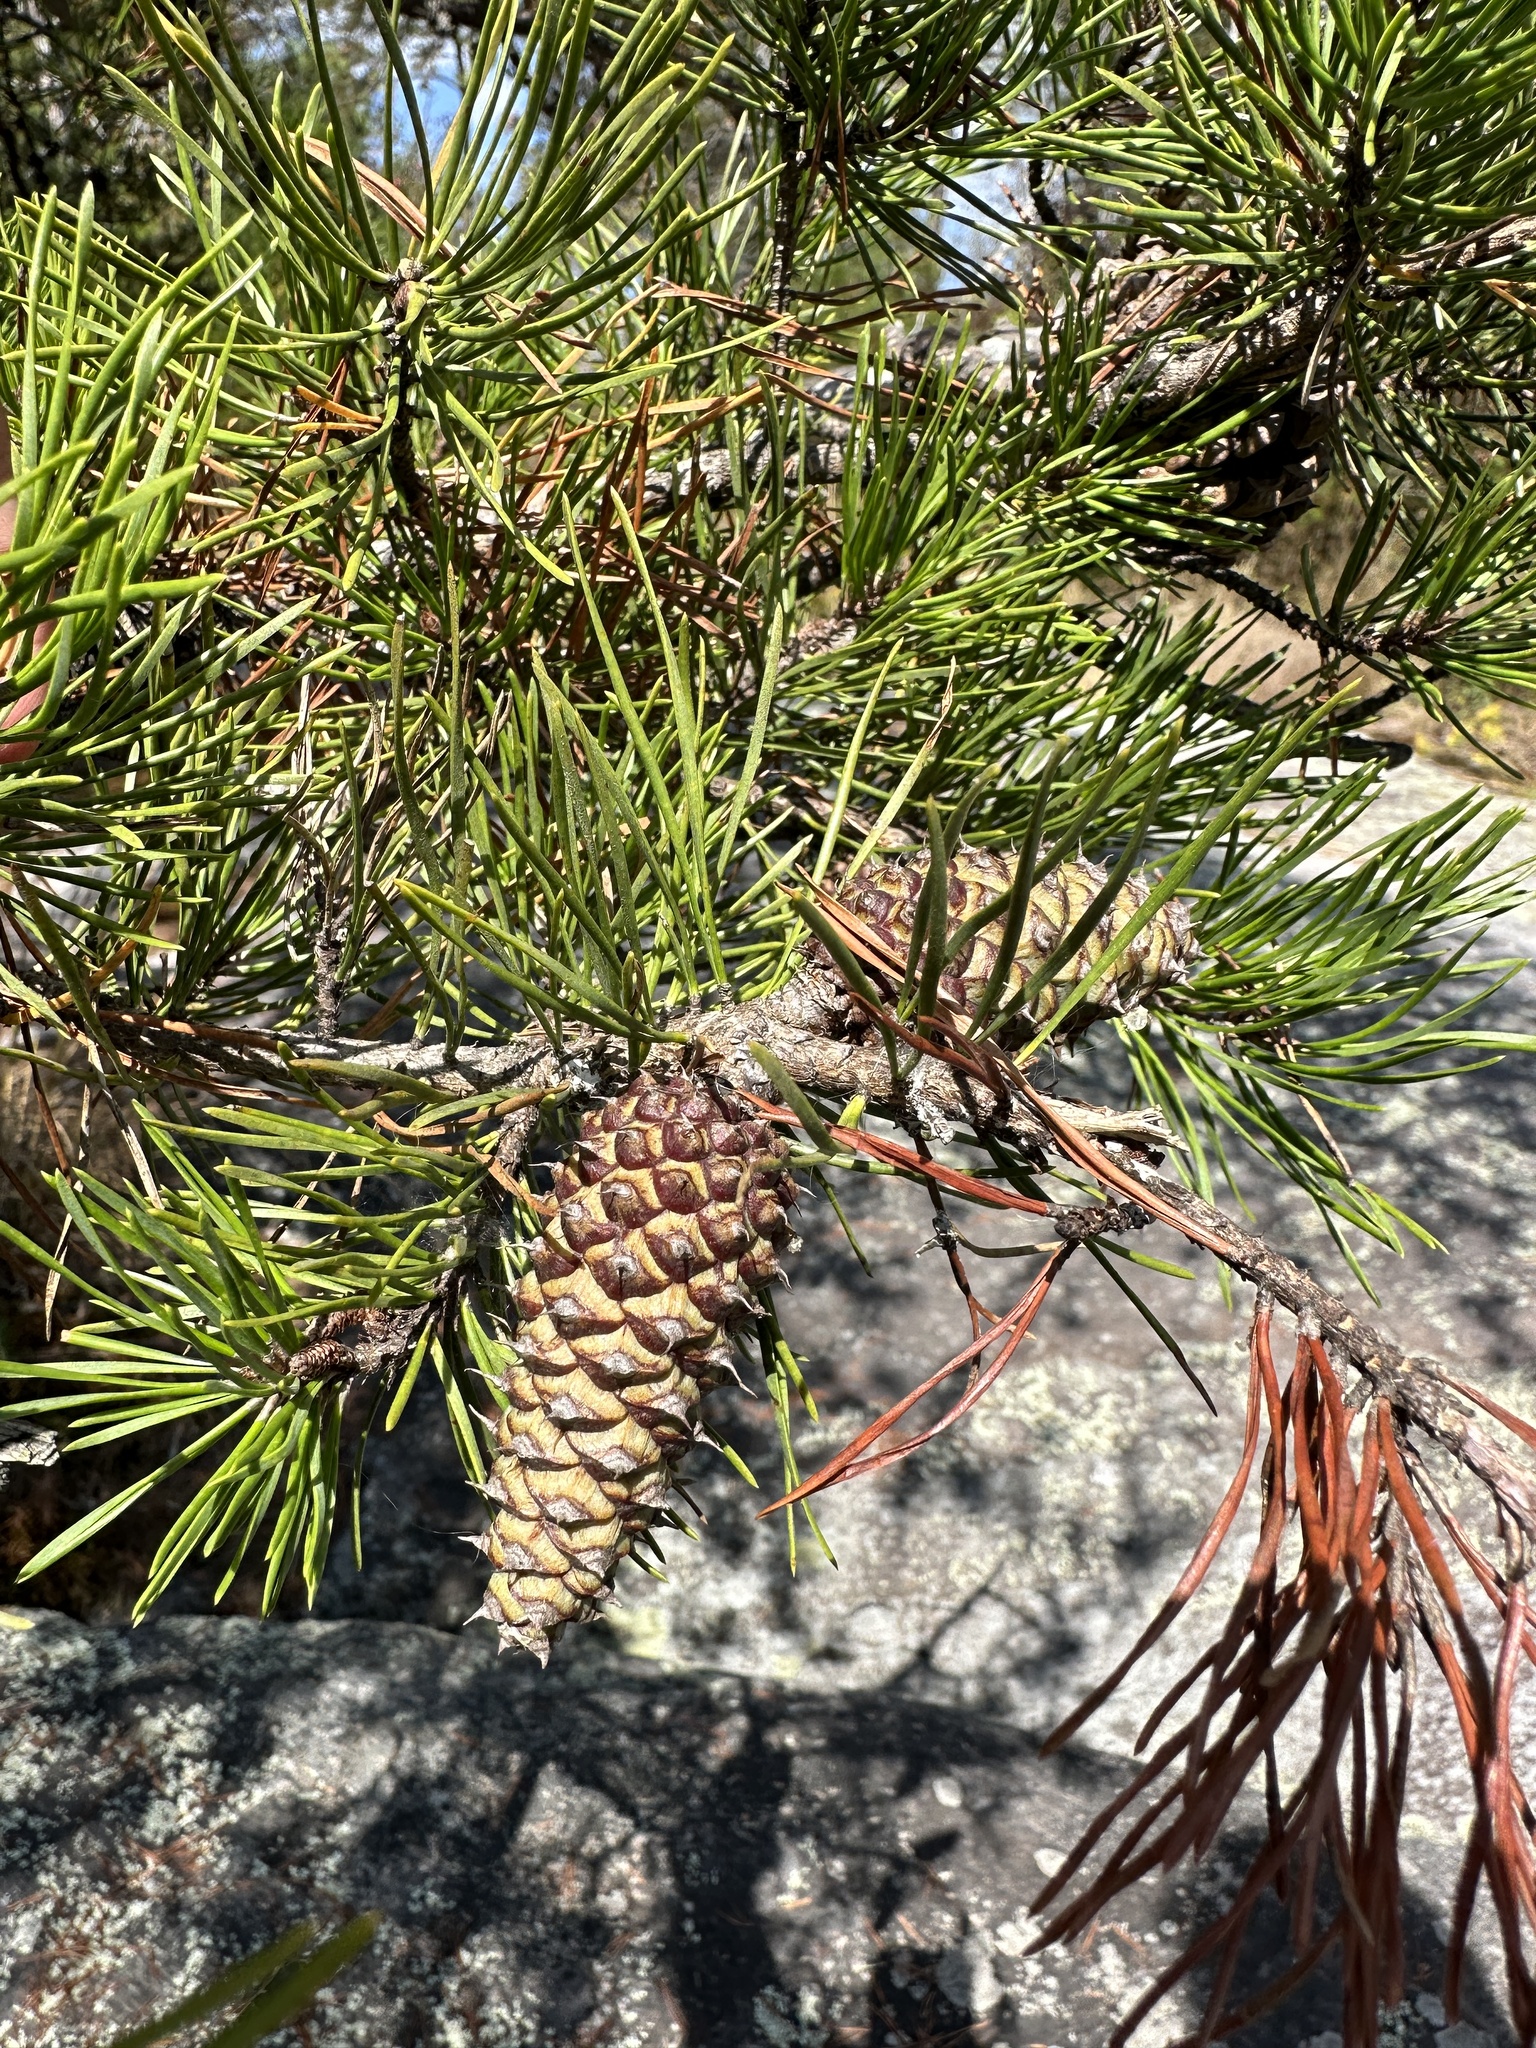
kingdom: Plantae
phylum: Tracheophyta
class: Pinopsida
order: Pinales
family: Pinaceae
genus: Pinus
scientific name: Pinus virginiana
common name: Scrub pine
